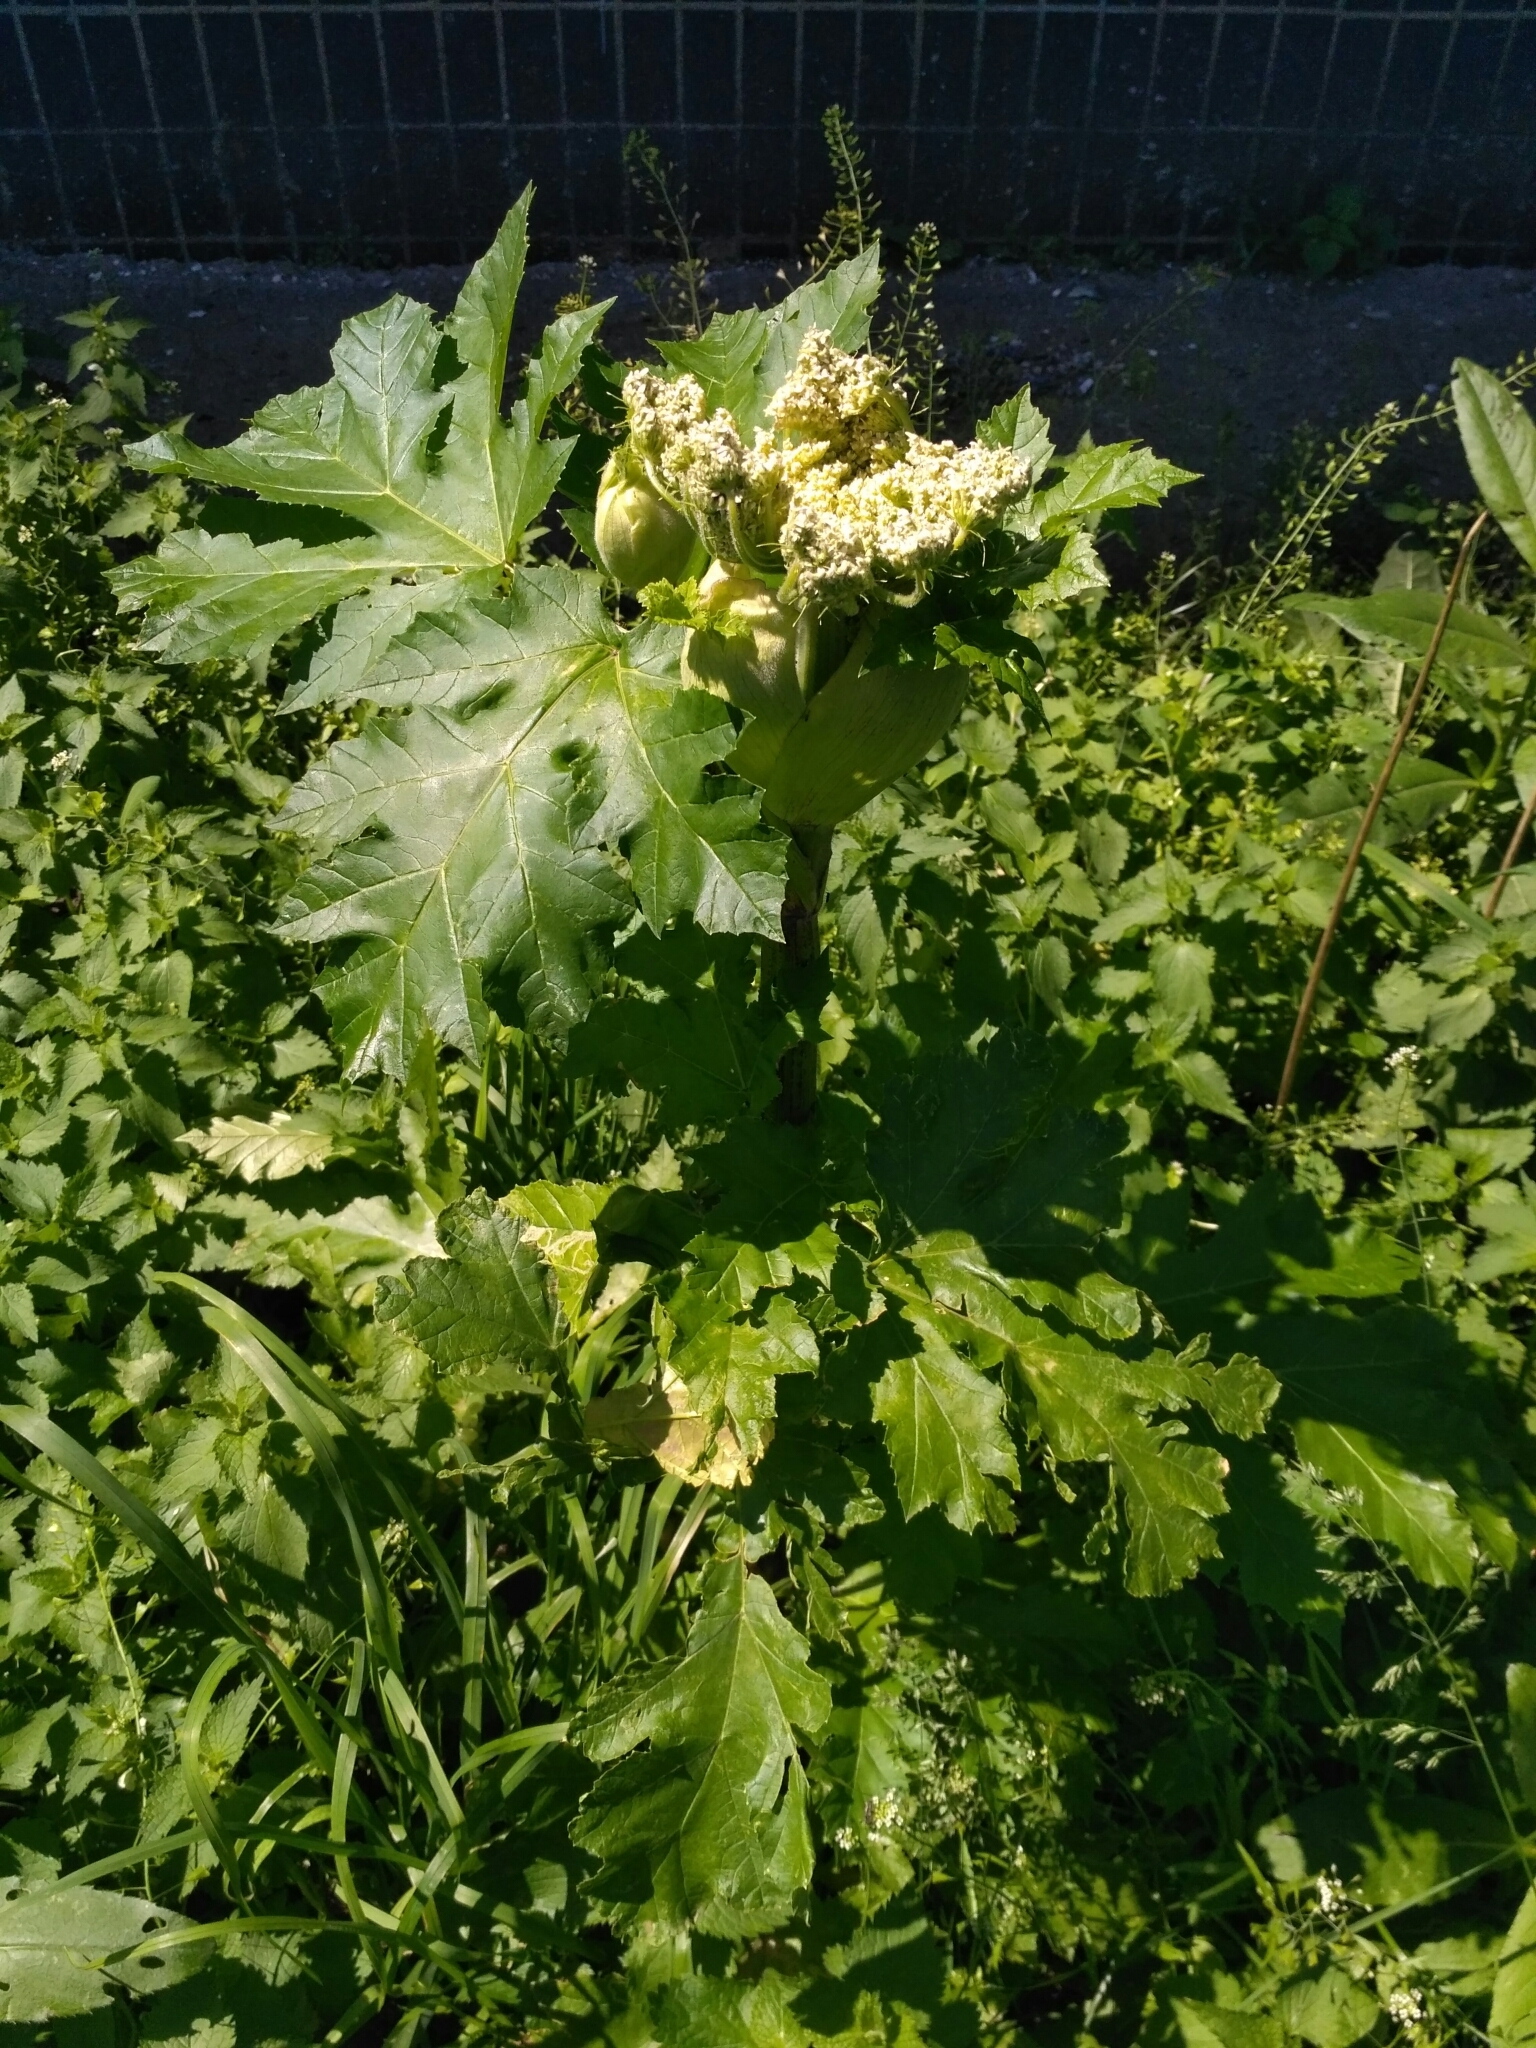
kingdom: Plantae
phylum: Tracheophyta
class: Magnoliopsida
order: Apiales
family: Apiaceae
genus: Heracleum
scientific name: Heracleum sosnowskyi
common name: Sosnowsky's hogweed
